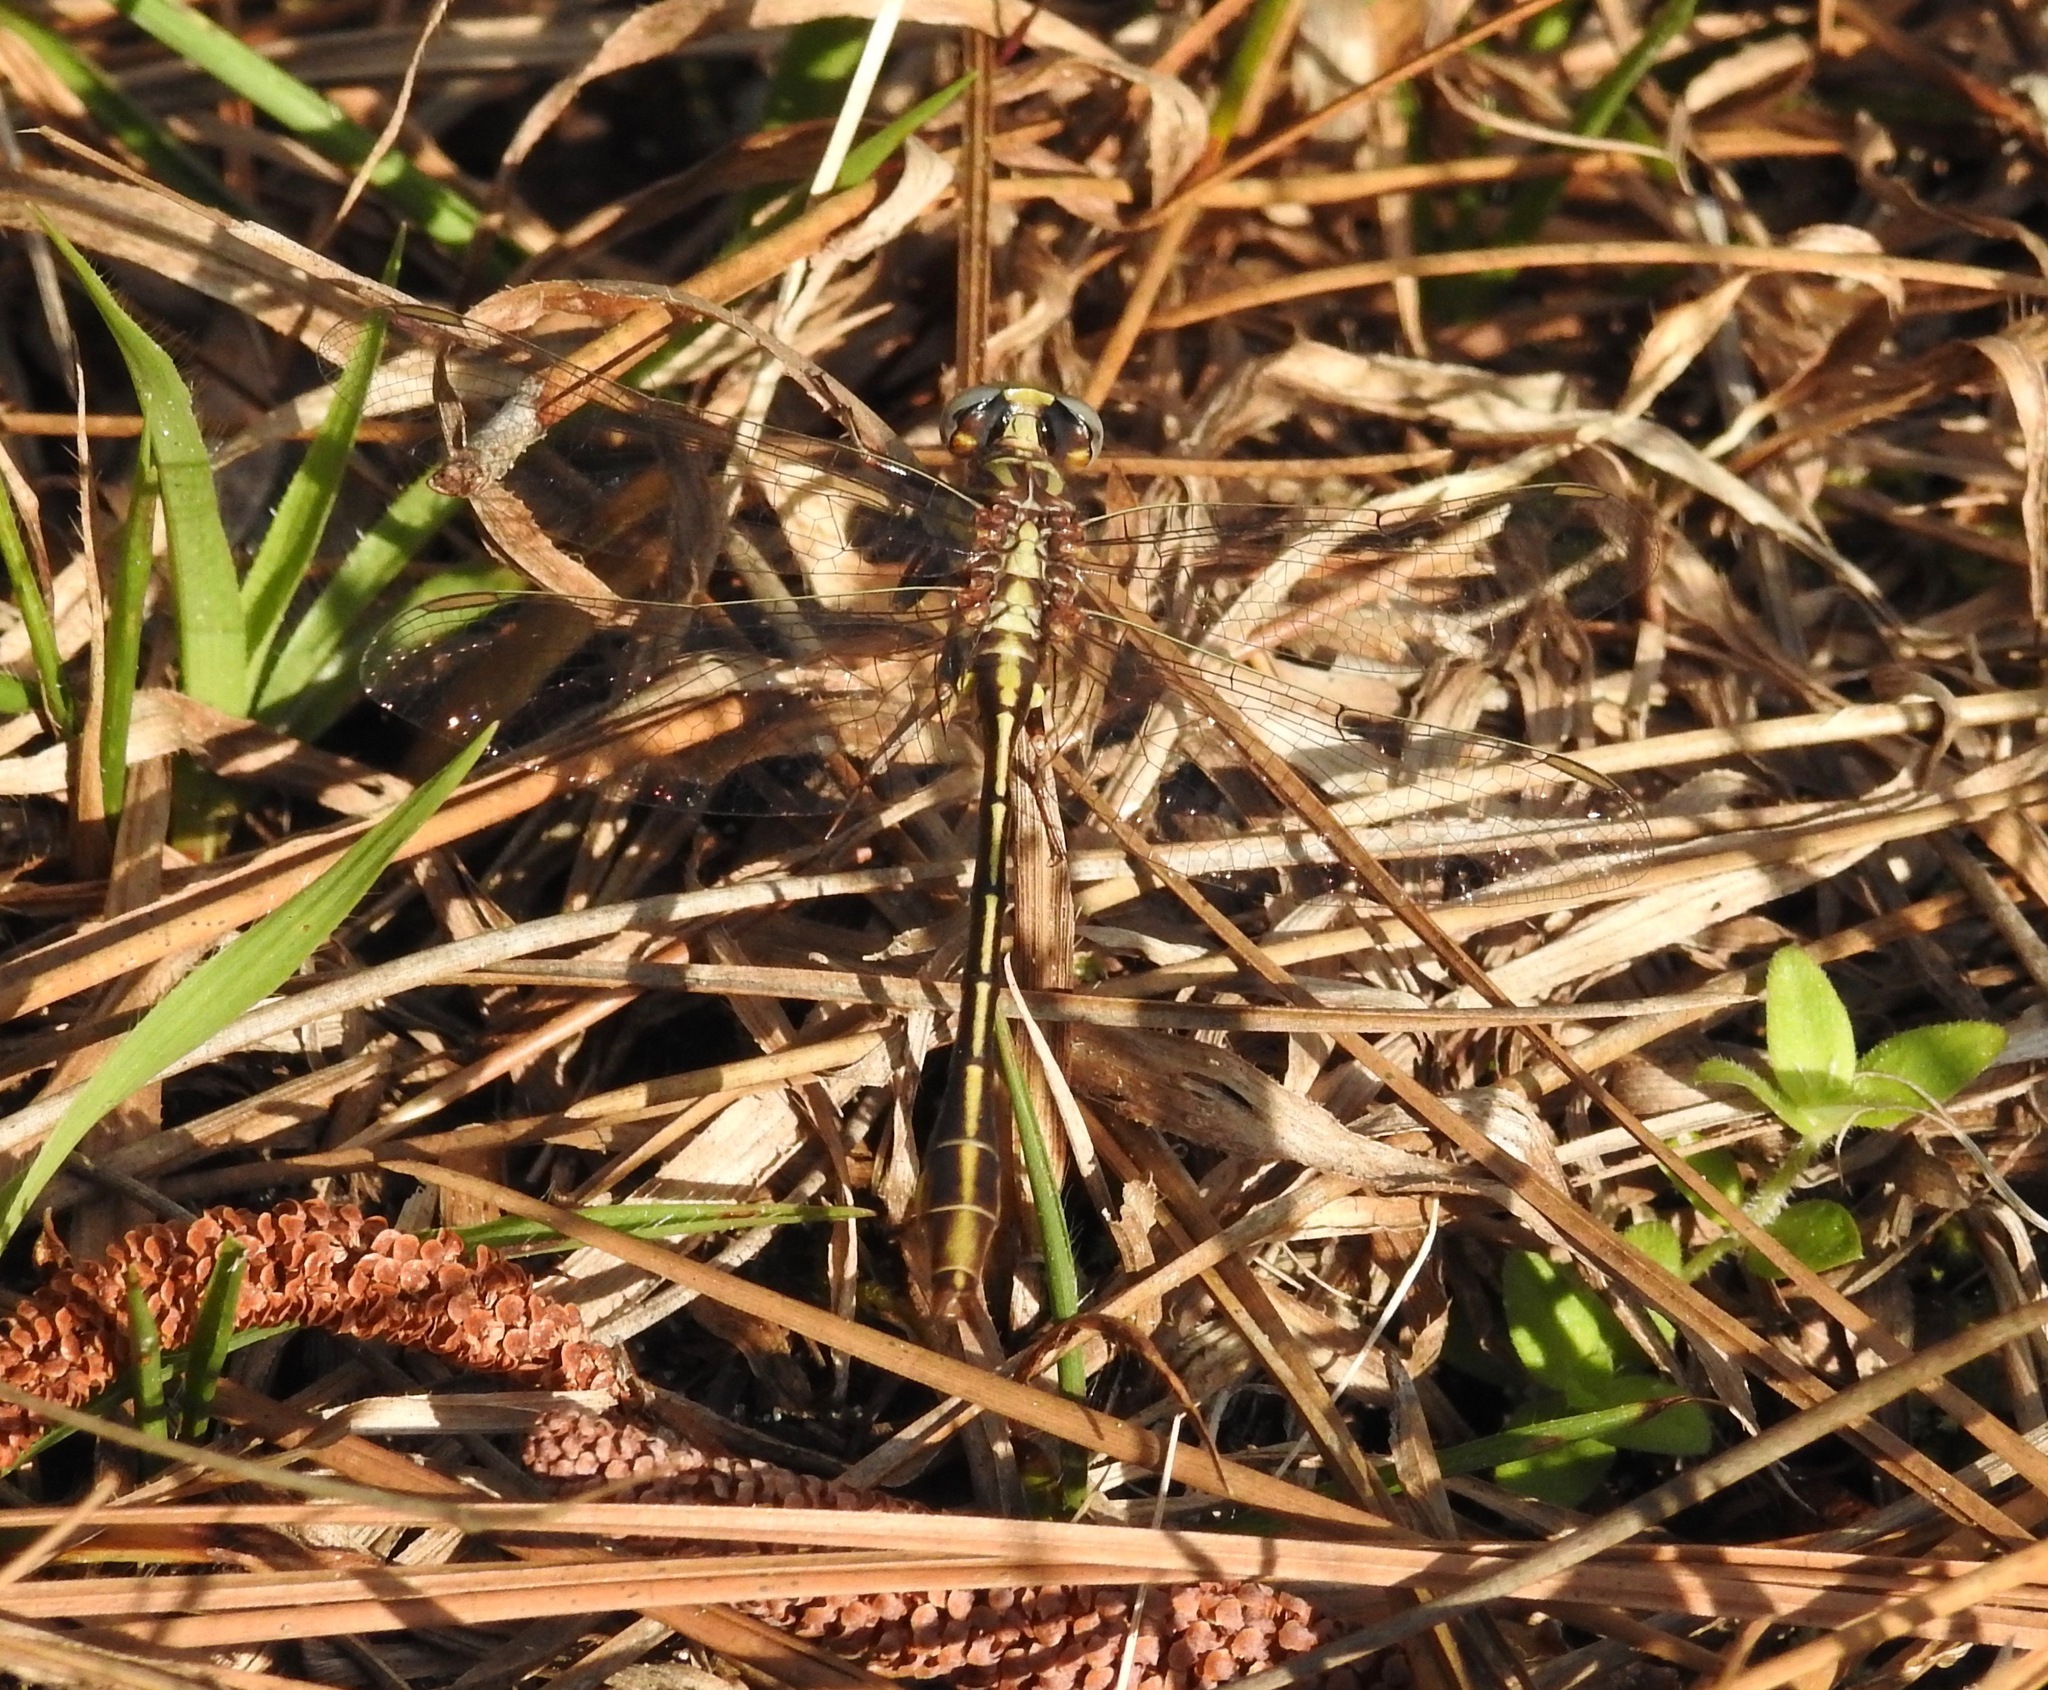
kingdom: Animalia
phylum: Arthropoda
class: Insecta
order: Odonata
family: Gomphidae
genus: Phanogomphus
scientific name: Phanogomphus minutus
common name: Cypress clubtail
